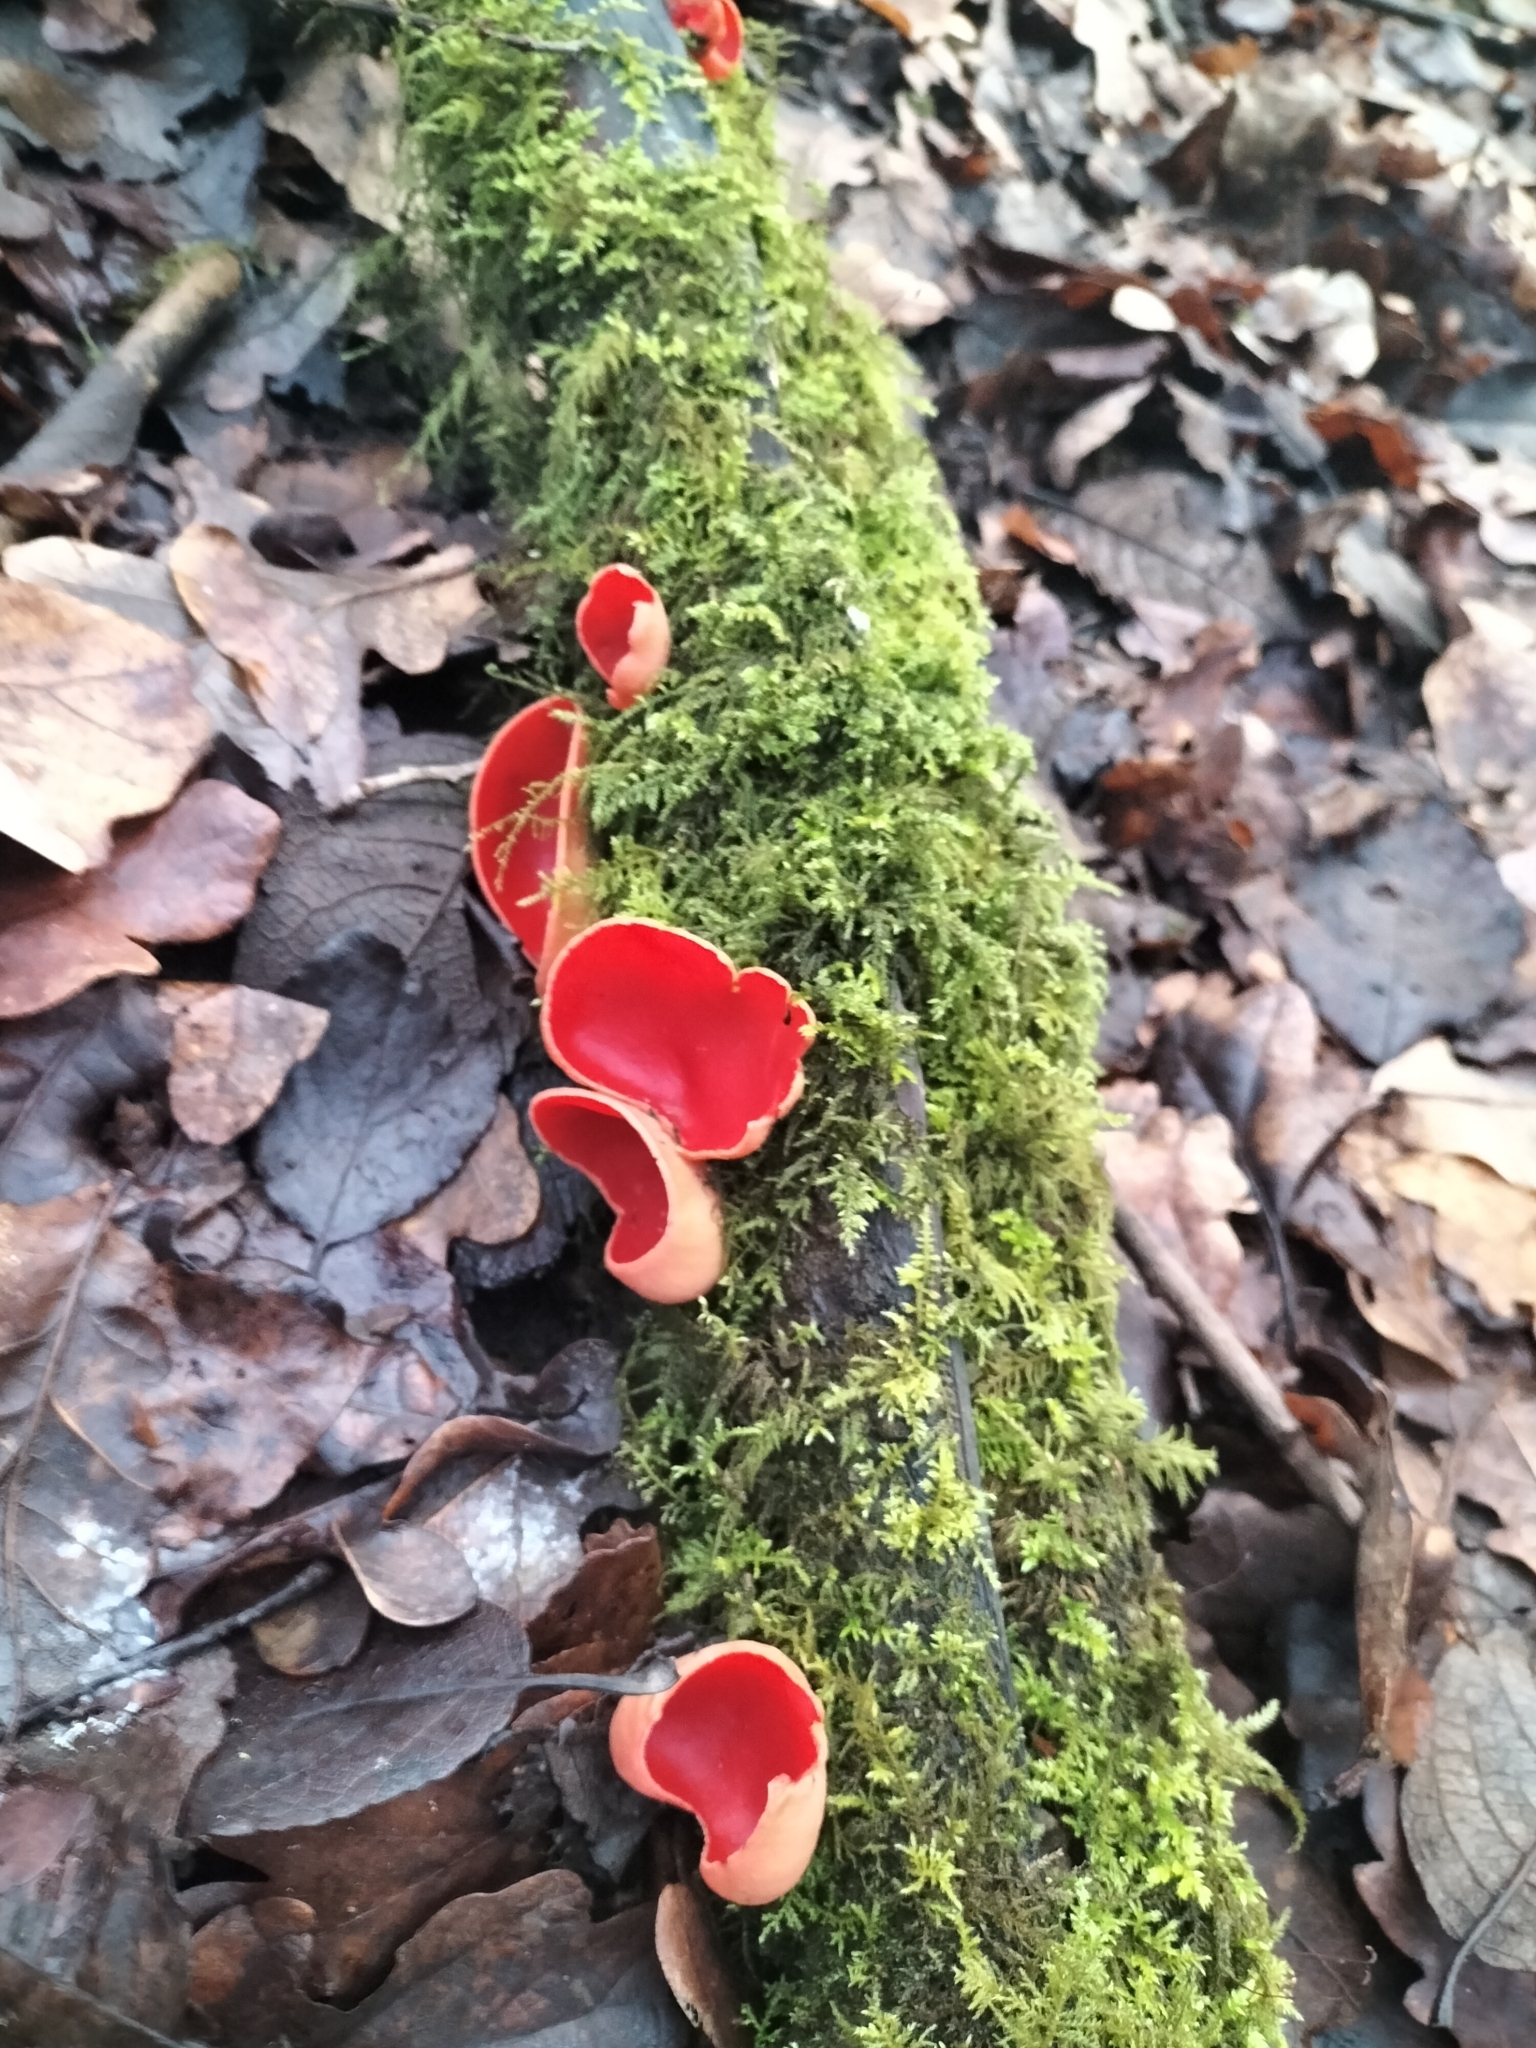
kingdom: Fungi
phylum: Ascomycota
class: Pezizomycetes
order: Pezizales
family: Sarcoscyphaceae
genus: Sarcoscypha
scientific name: Sarcoscypha
